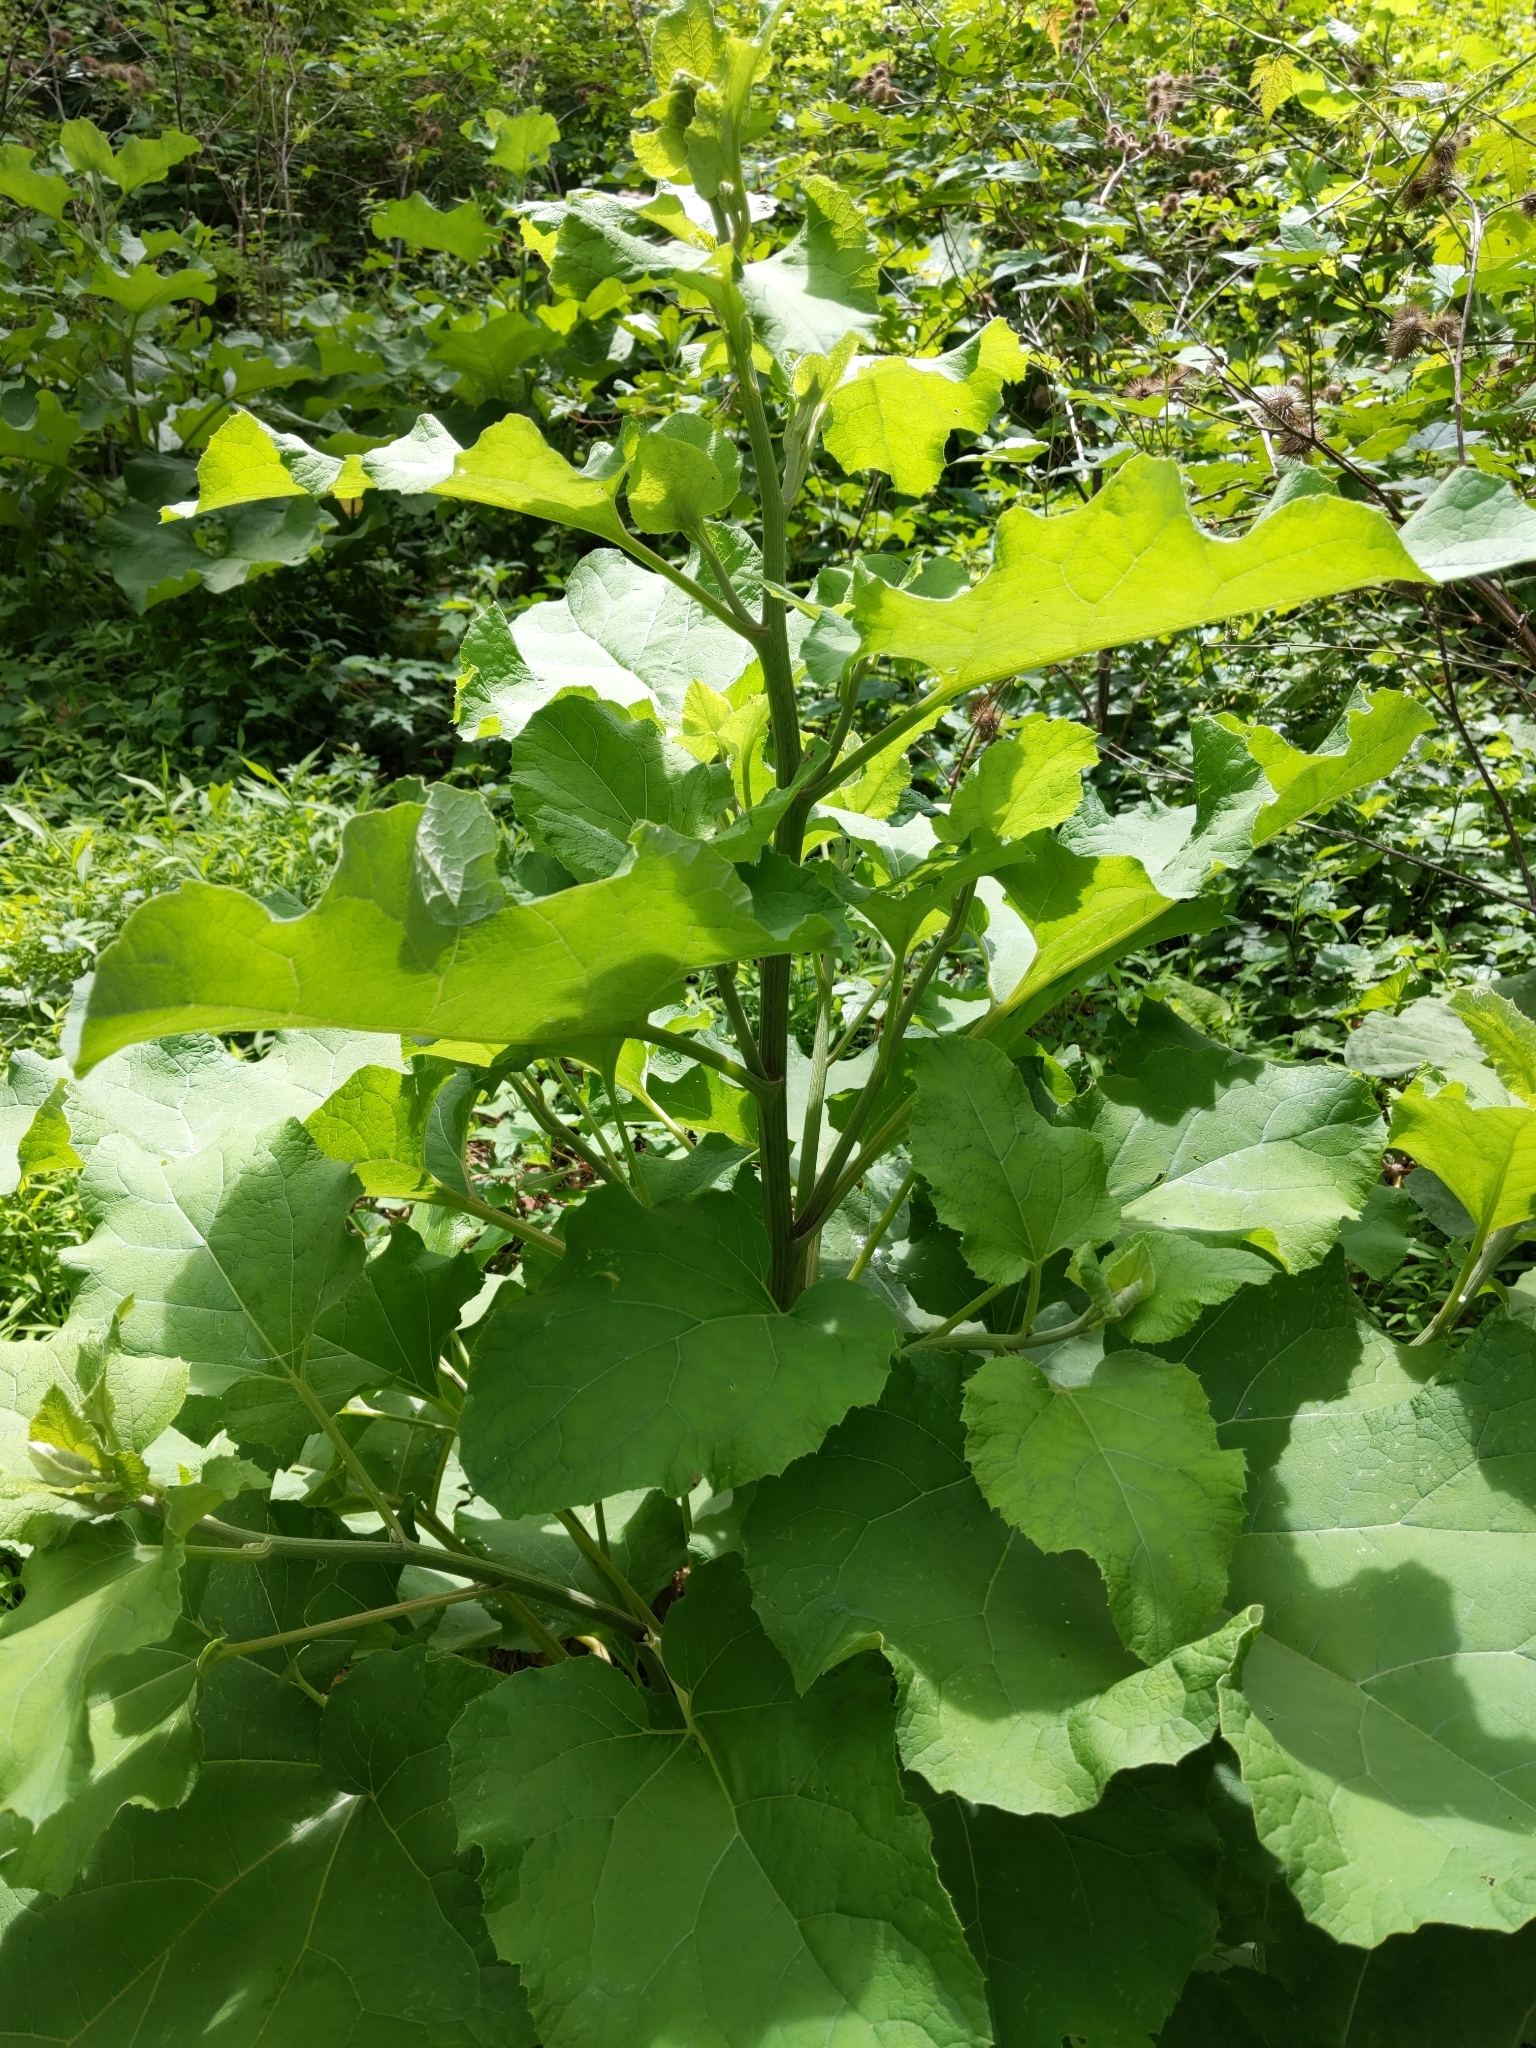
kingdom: Plantae
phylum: Tracheophyta
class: Magnoliopsida
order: Asterales
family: Asteraceae
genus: Arctium
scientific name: Arctium
